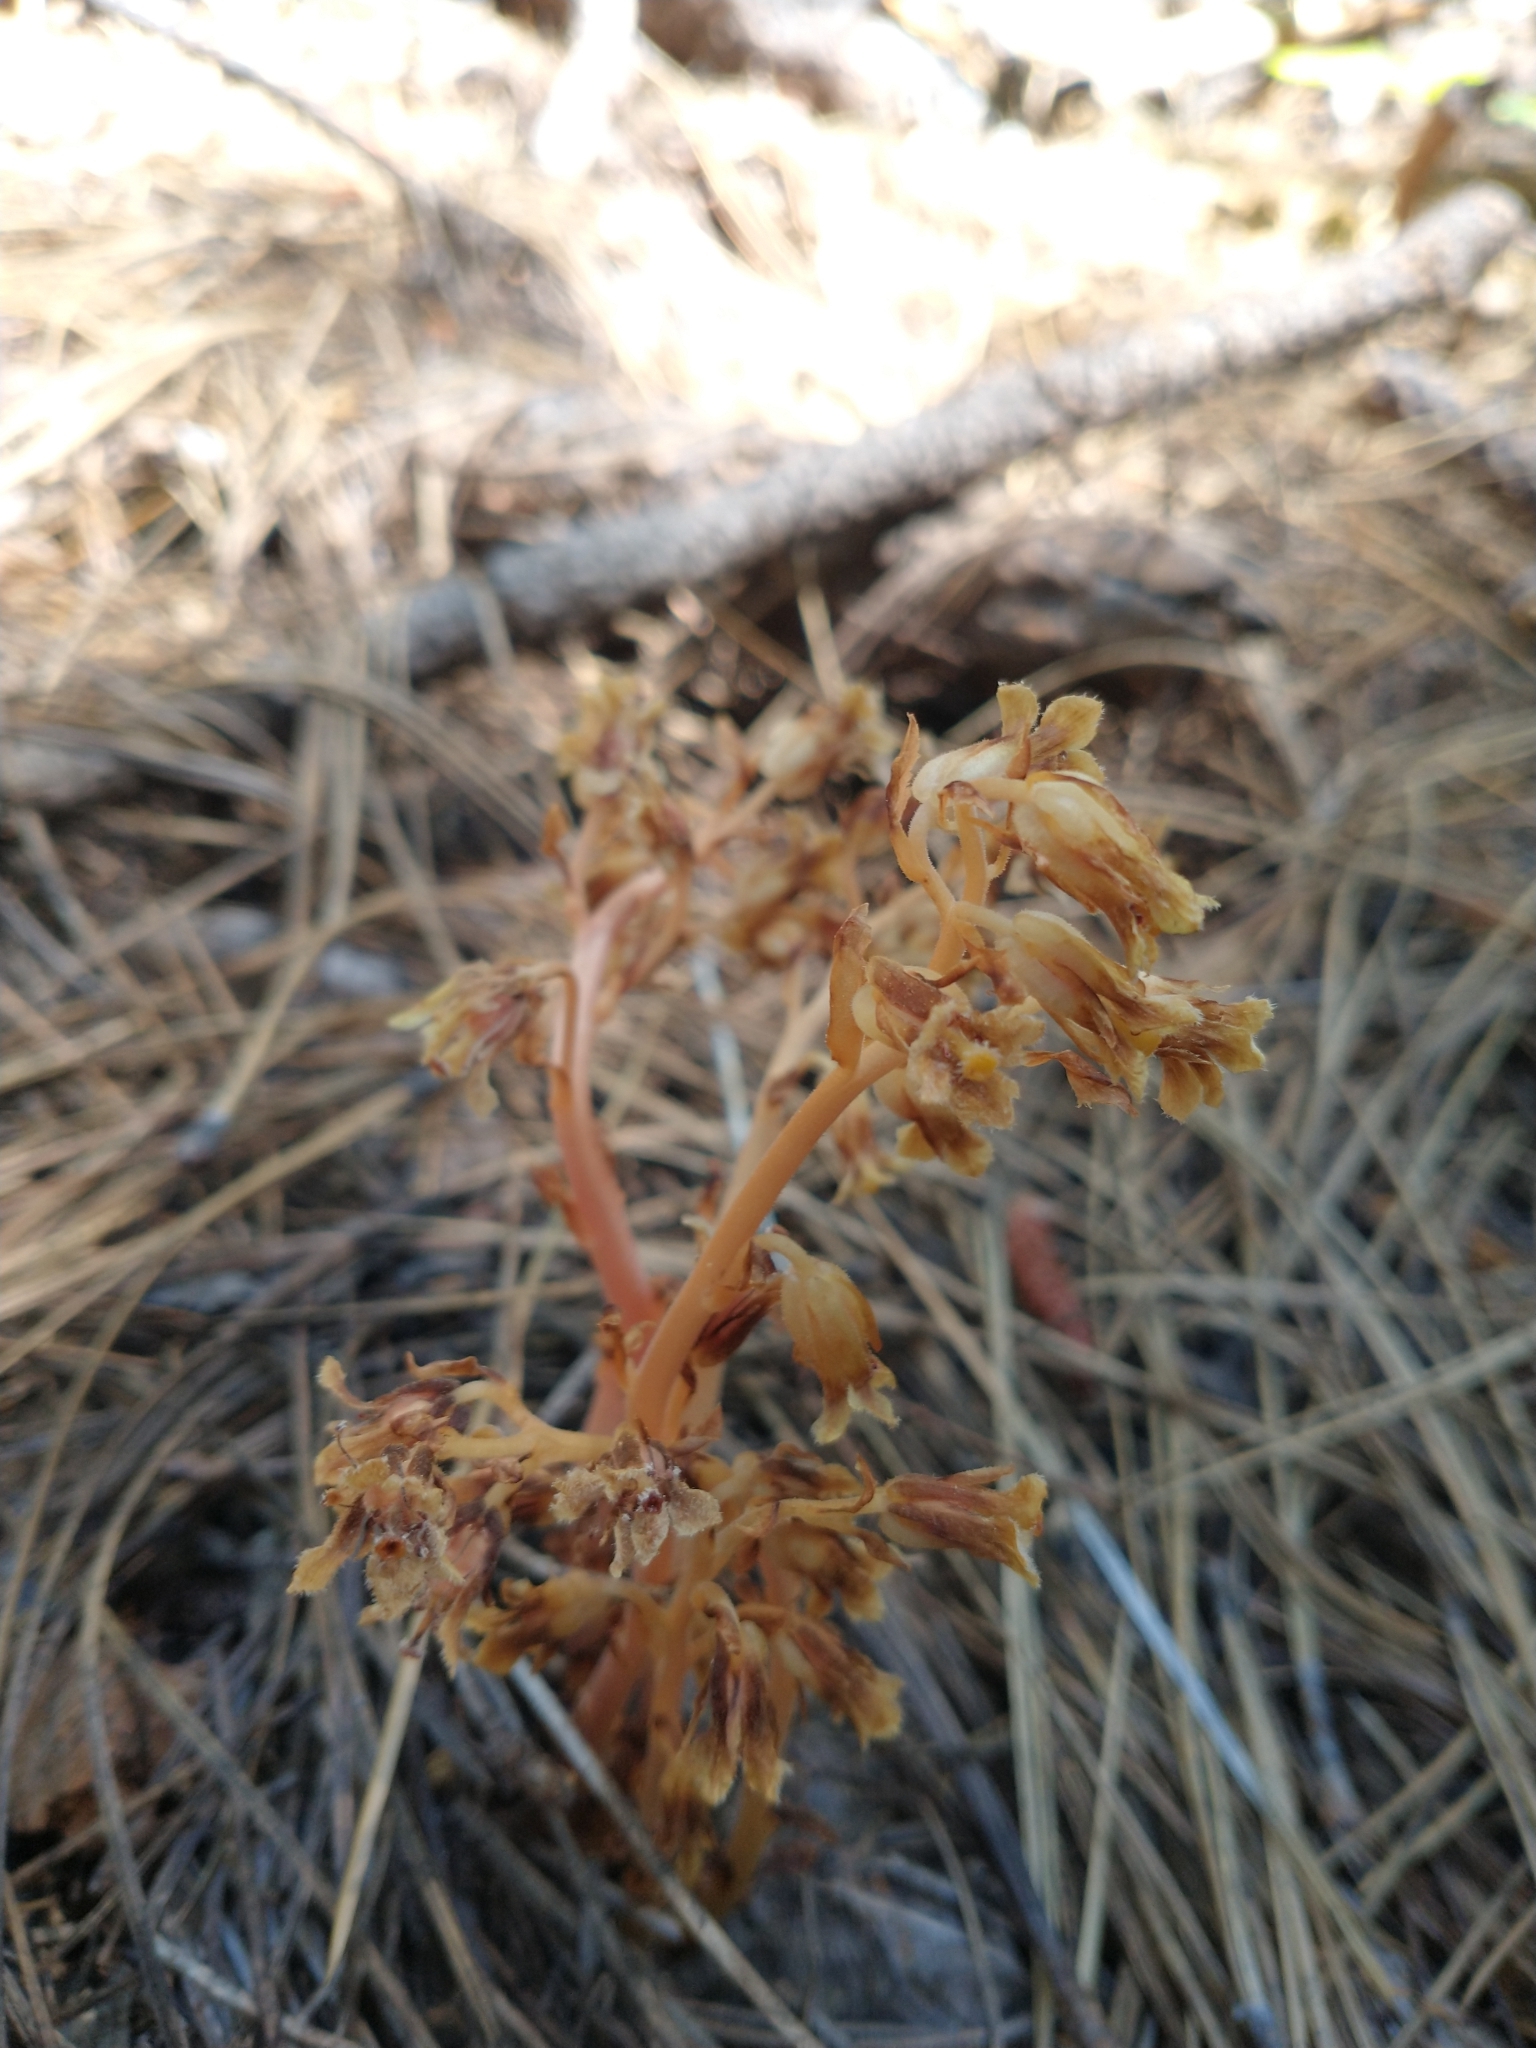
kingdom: Plantae
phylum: Tracheophyta
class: Magnoliopsida
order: Ericales
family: Ericaceae
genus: Hypopitys
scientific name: Hypopitys monotropa
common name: Yellow bird's-nest
